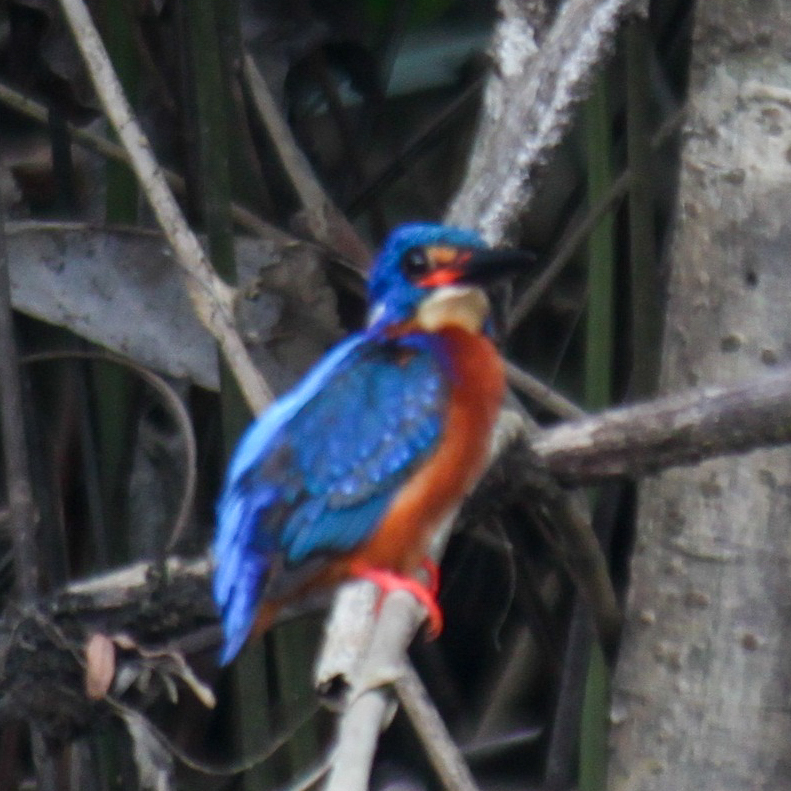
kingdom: Animalia
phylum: Chordata
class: Aves
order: Coraciiformes
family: Alcedinidae
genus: Alcedo
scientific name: Alcedo meninting
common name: Blue-eared kingfisher
